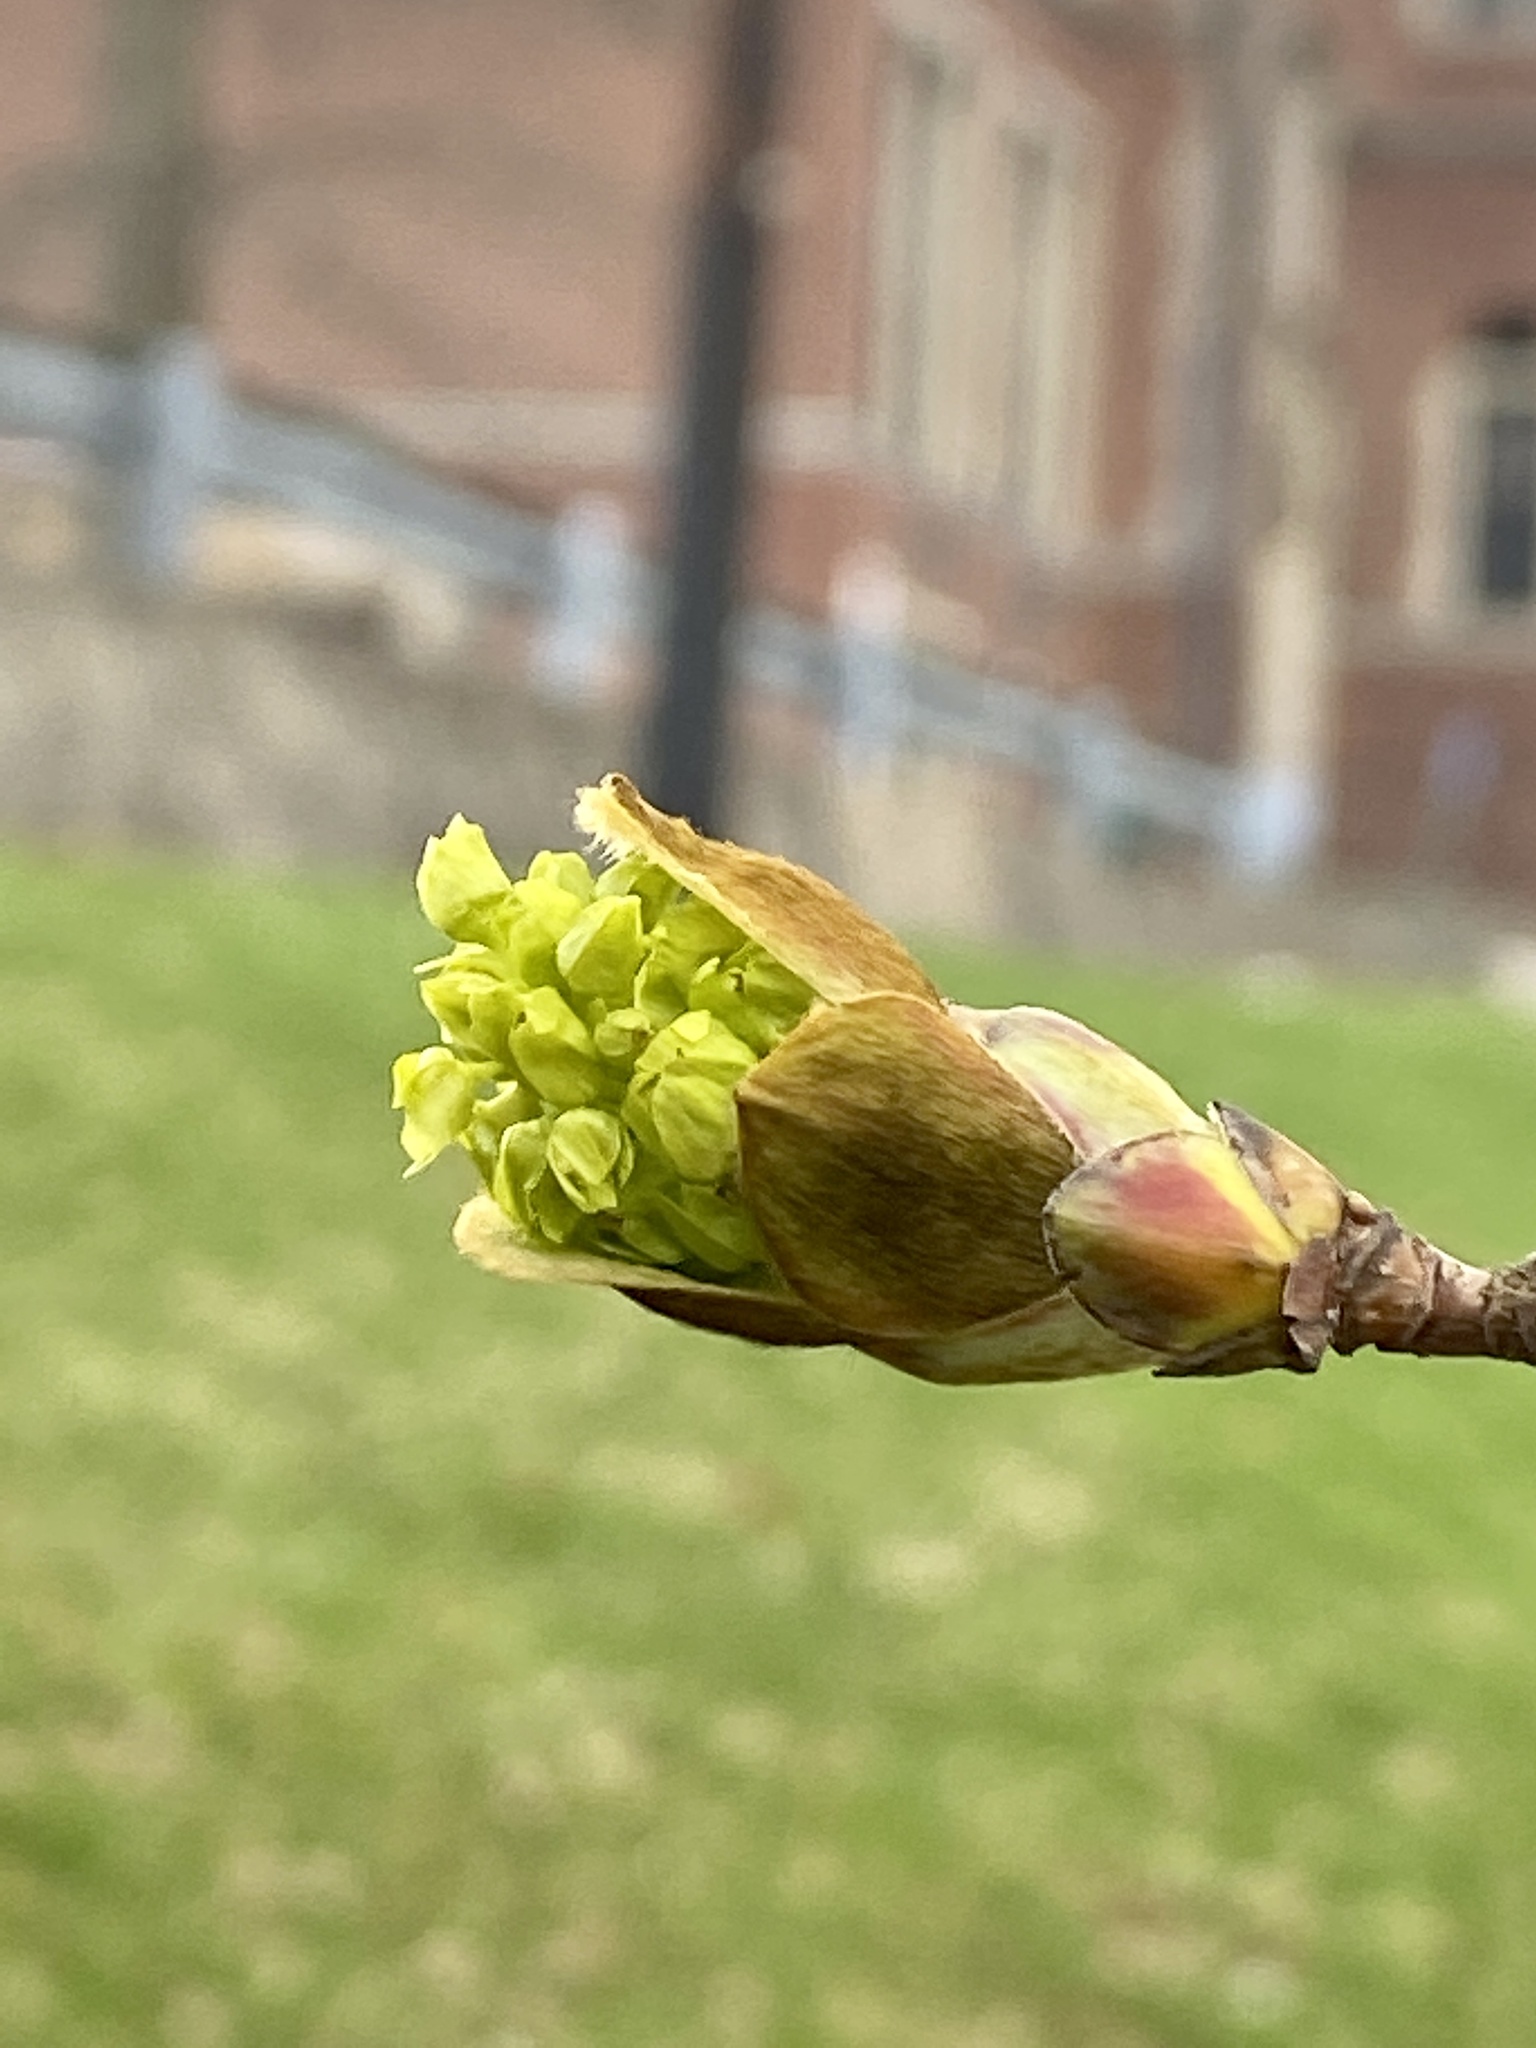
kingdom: Plantae
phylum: Tracheophyta
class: Magnoliopsida
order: Sapindales
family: Sapindaceae
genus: Acer
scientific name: Acer platanoides
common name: Norway maple
